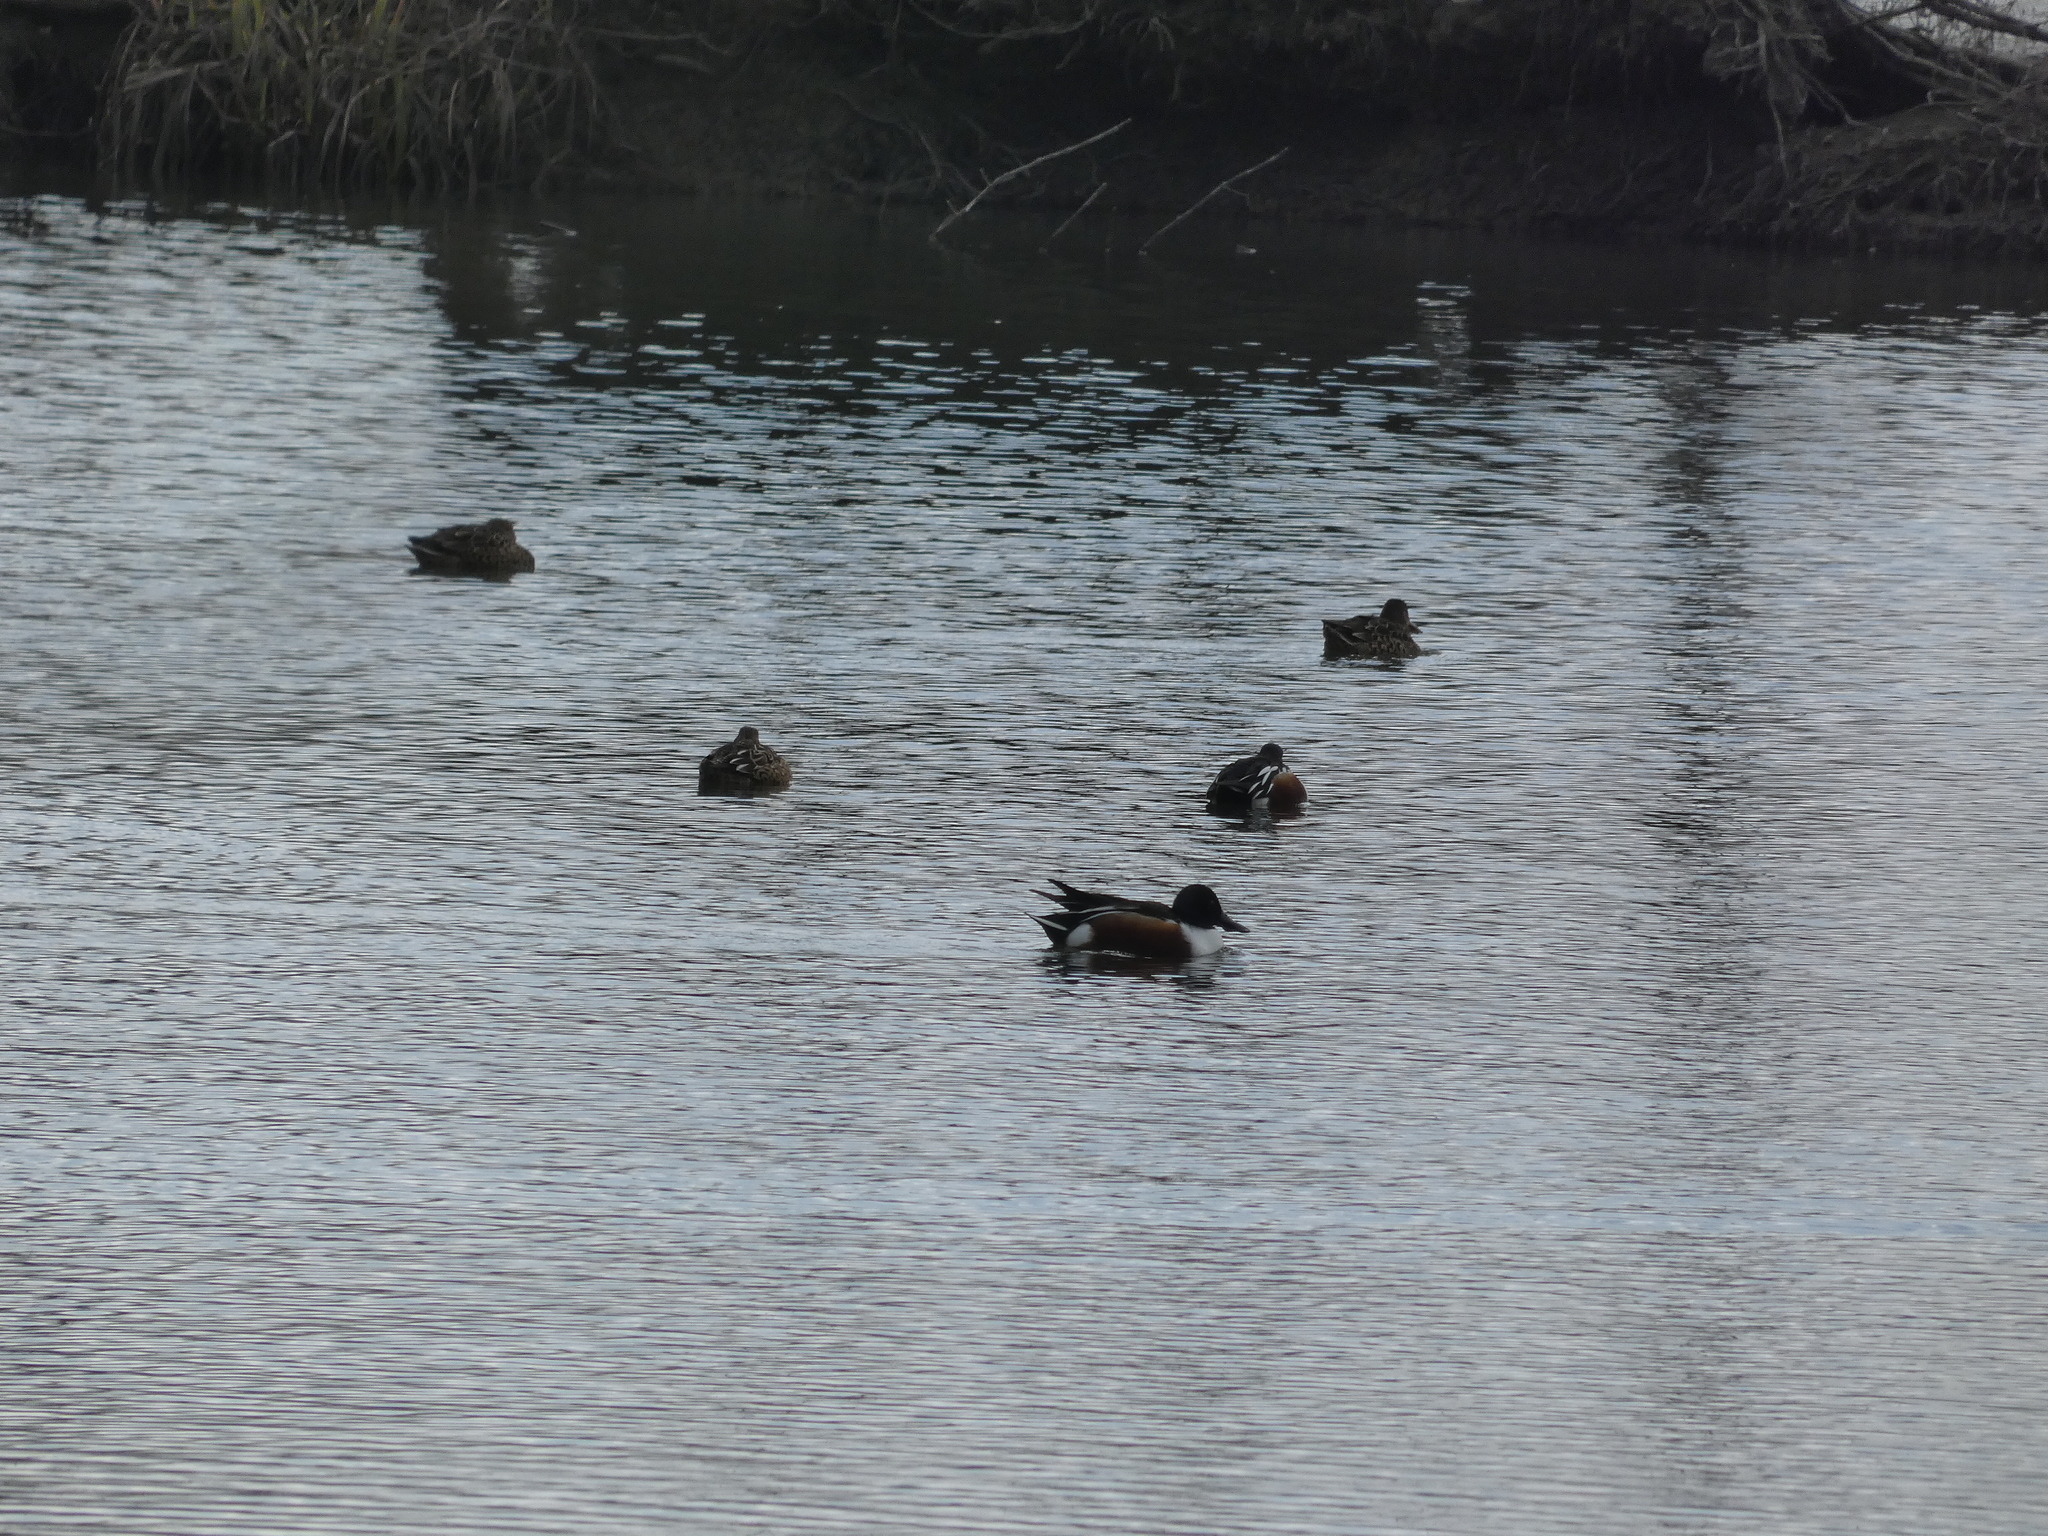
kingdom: Animalia
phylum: Chordata
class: Aves
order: Anseriformes
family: Anatidae
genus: Spatula
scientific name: Spatula clypeata
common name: Northern shoveler
